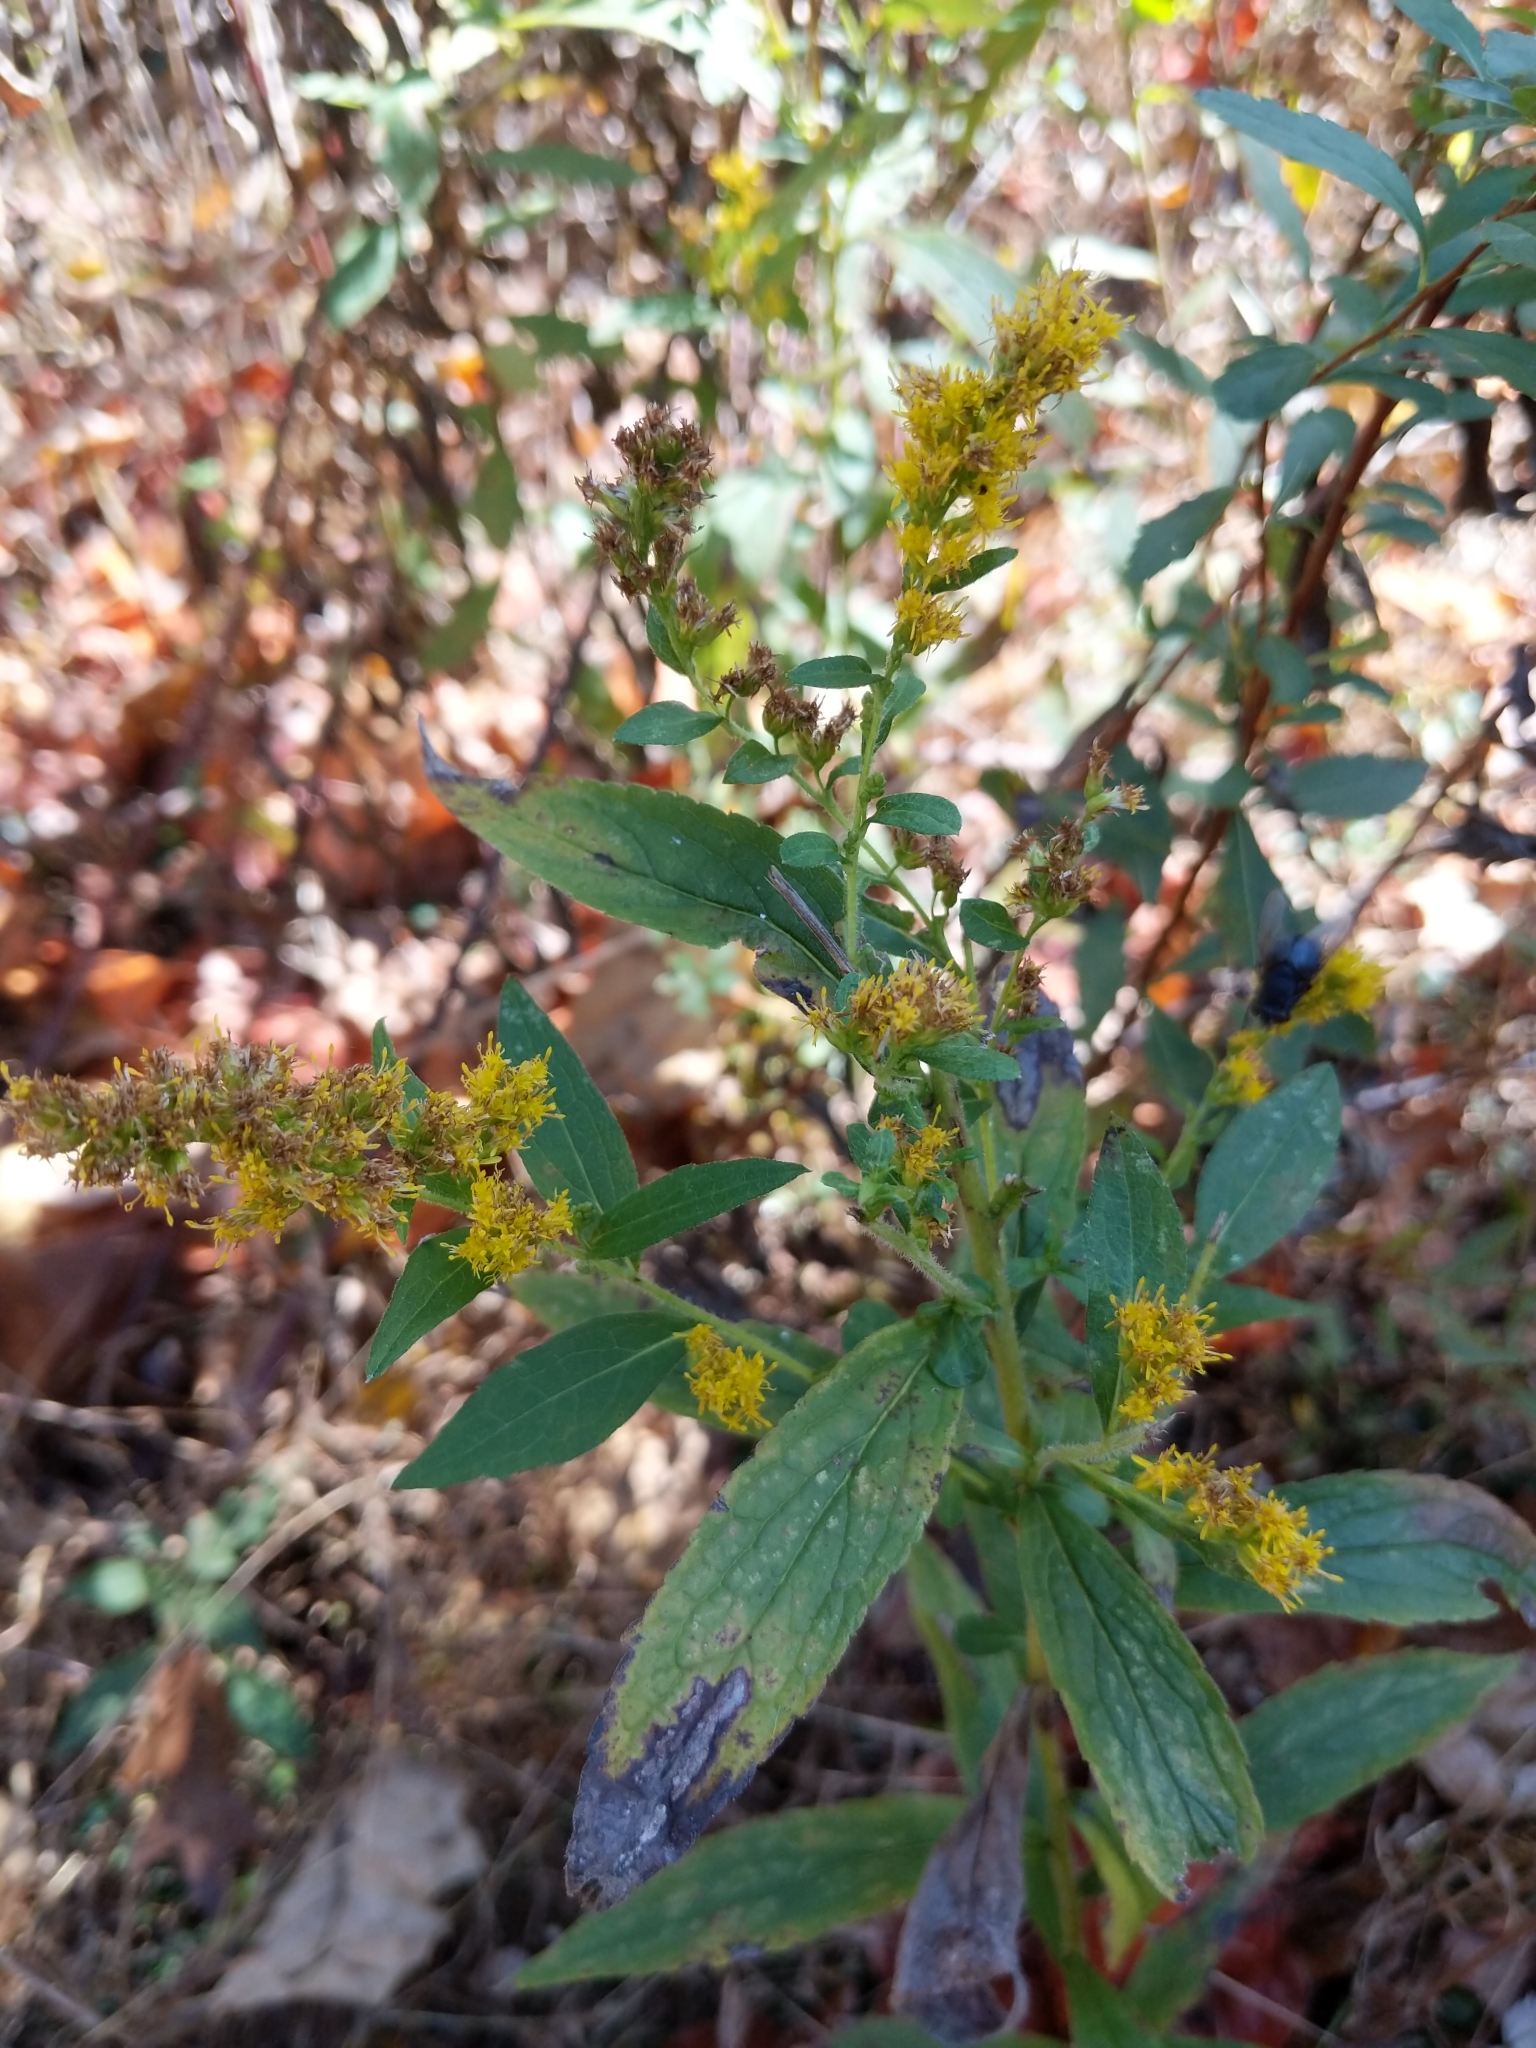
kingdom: Plantae
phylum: Tracheophyta
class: Magnoliopsida
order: Asterales
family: Asteraceae
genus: Solidago
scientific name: Solidago rugosa
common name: Rough-stemmed goldenrod
